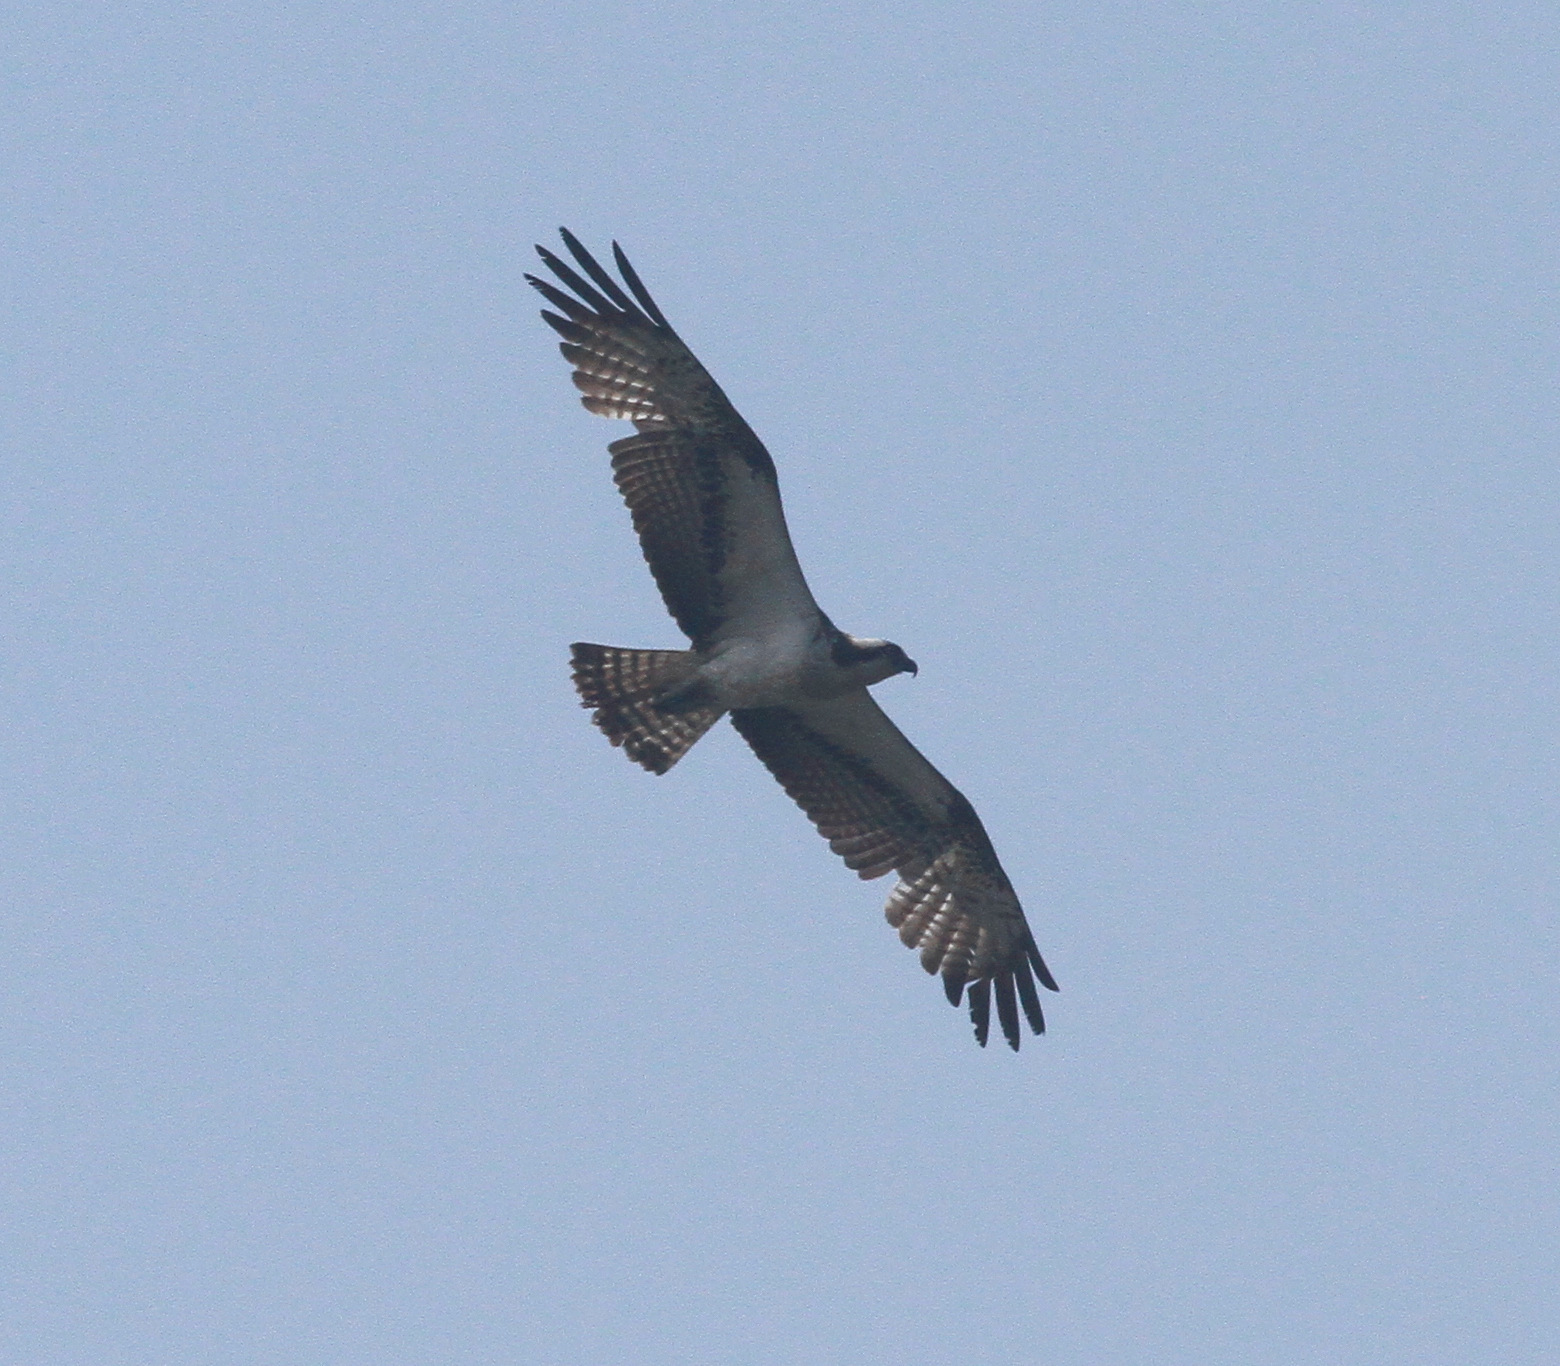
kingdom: Animalia
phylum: Chordata
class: Aves
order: Accipitriformes
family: Pandionidae
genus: Pandion
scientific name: Pandion haliaetus
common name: Osprey
